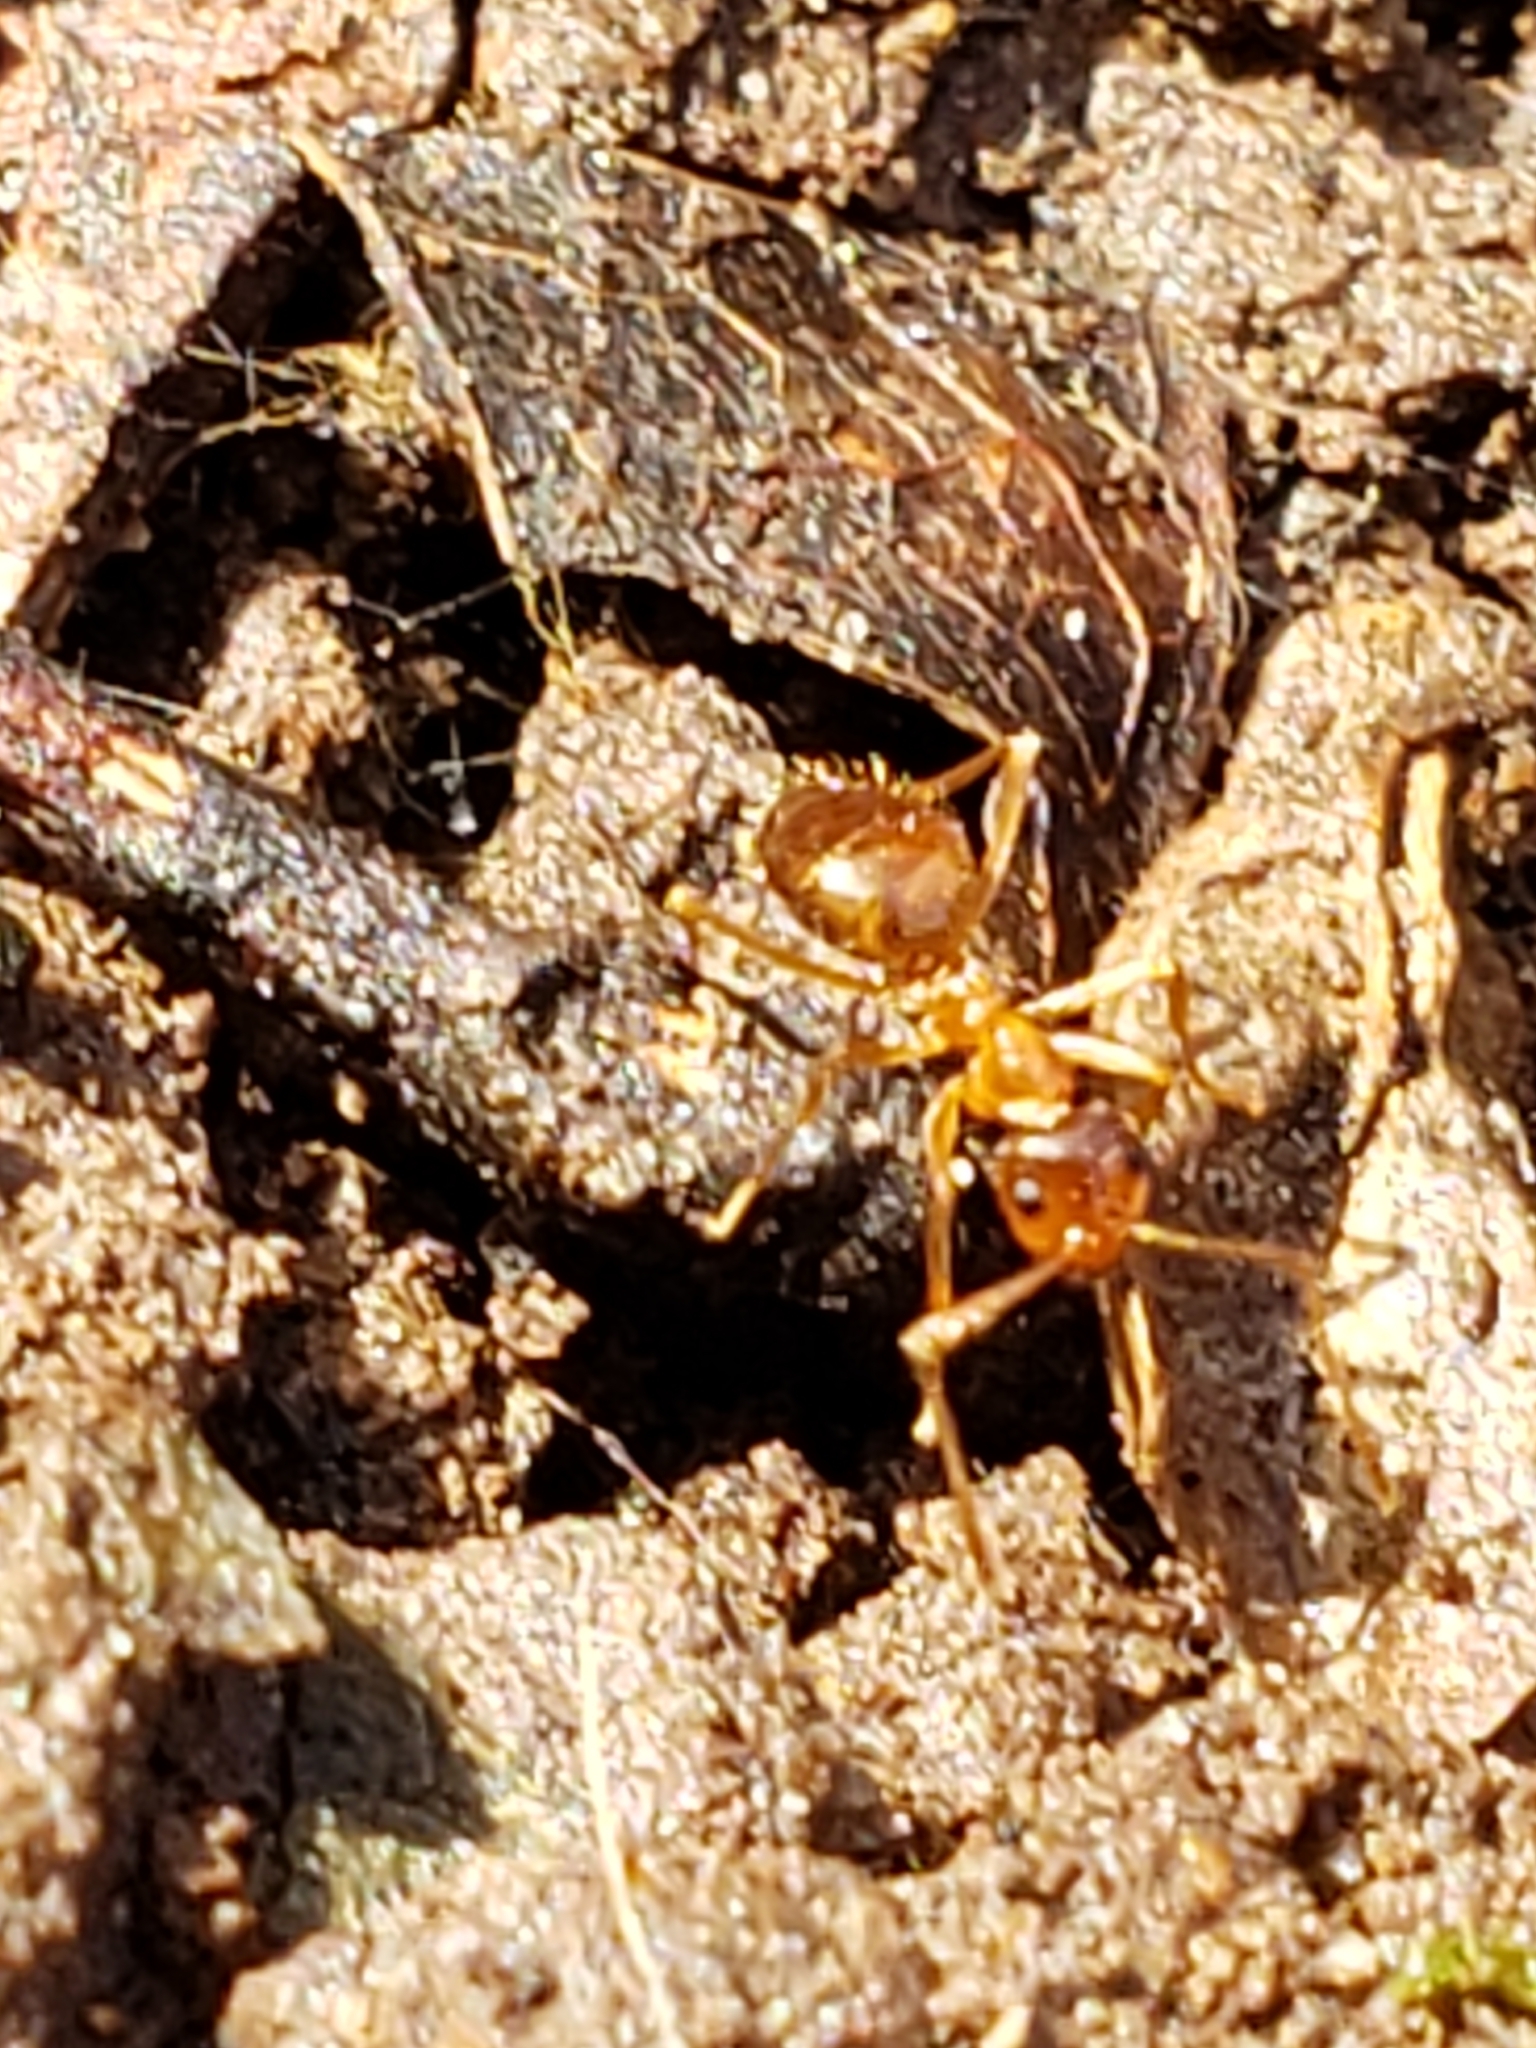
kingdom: Animalia
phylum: Arthropoda
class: Insecta
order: Hymenoptera
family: Formicidae
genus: Prenolepis
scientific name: Prenolepis imparis
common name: Small honey ant
